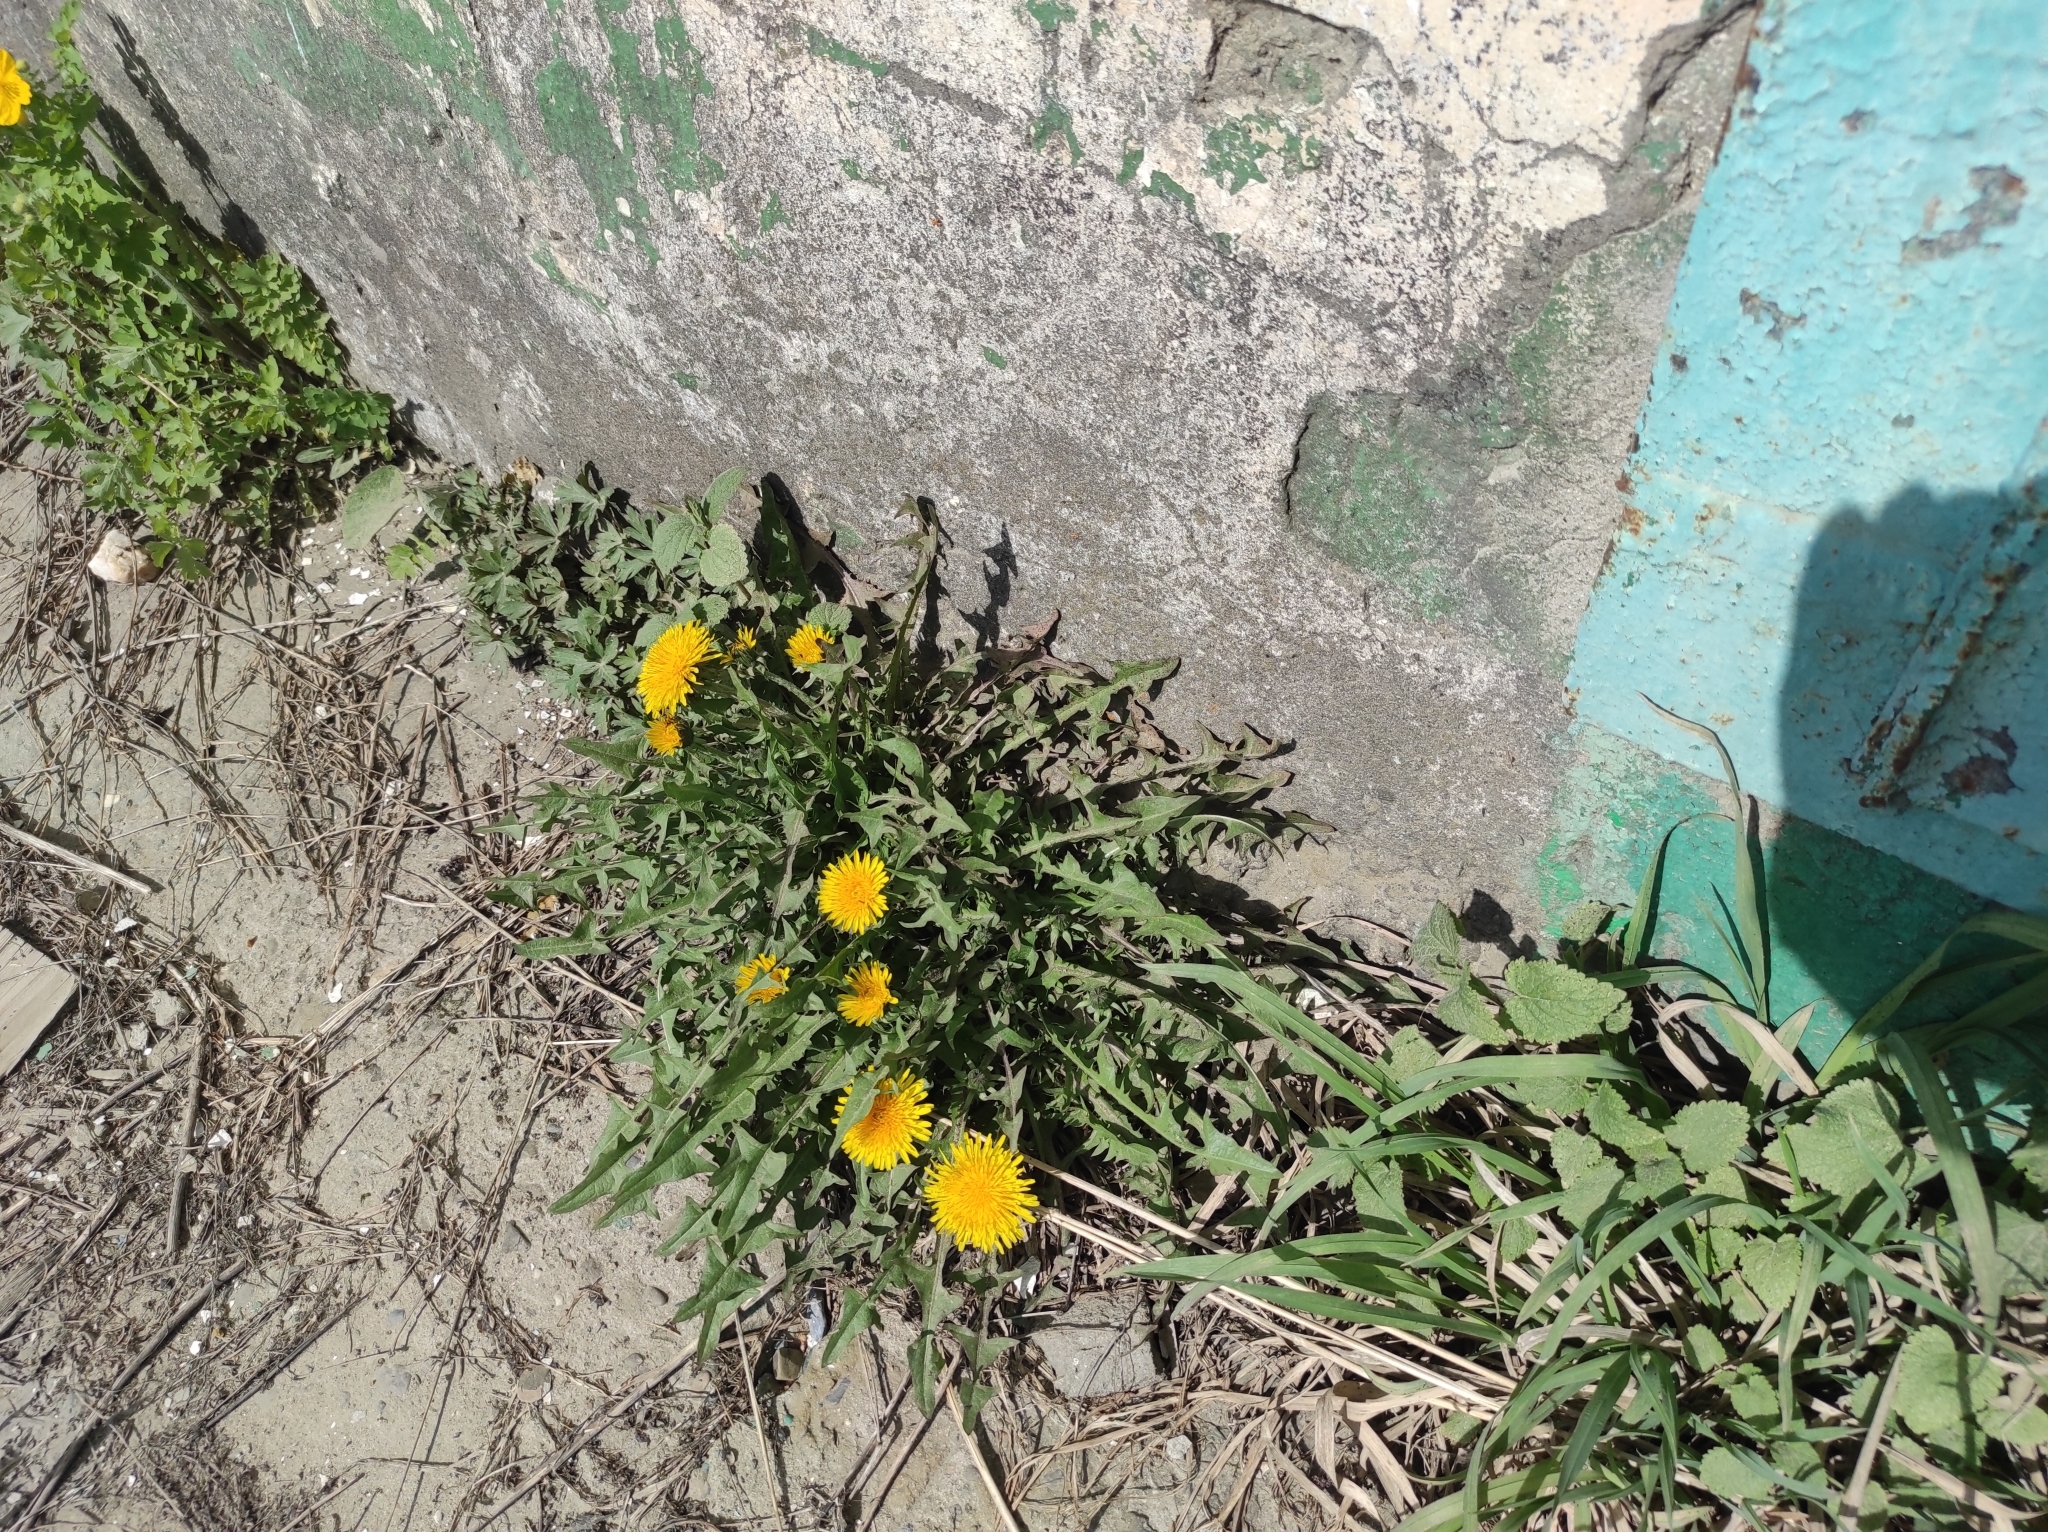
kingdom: Plantae
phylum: Tracheophyta
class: Magnoliopsida
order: Asterales
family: Asteraceae
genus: Taraxacum
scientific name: Taraxacum officinale
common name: Common dandelion
